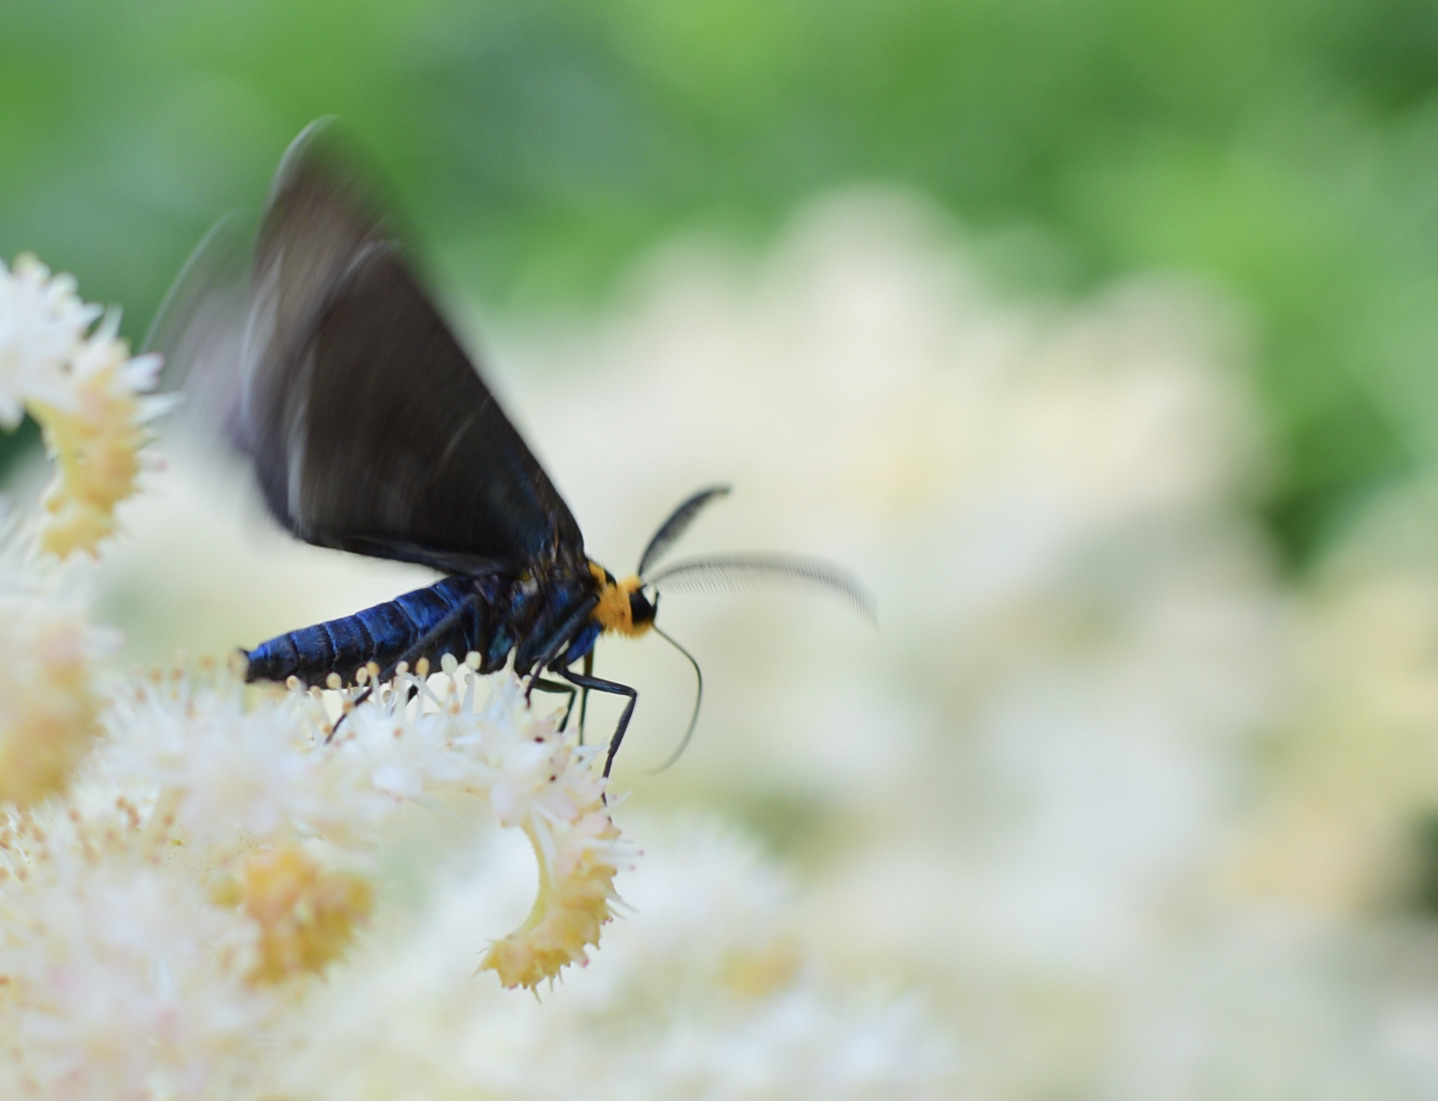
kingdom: Animalia
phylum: Arthropoda
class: Insecta
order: Lepidoptera
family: Erebidae
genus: Ctenucha
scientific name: Ctenucha virginica
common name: Virginia ctenucha moth
